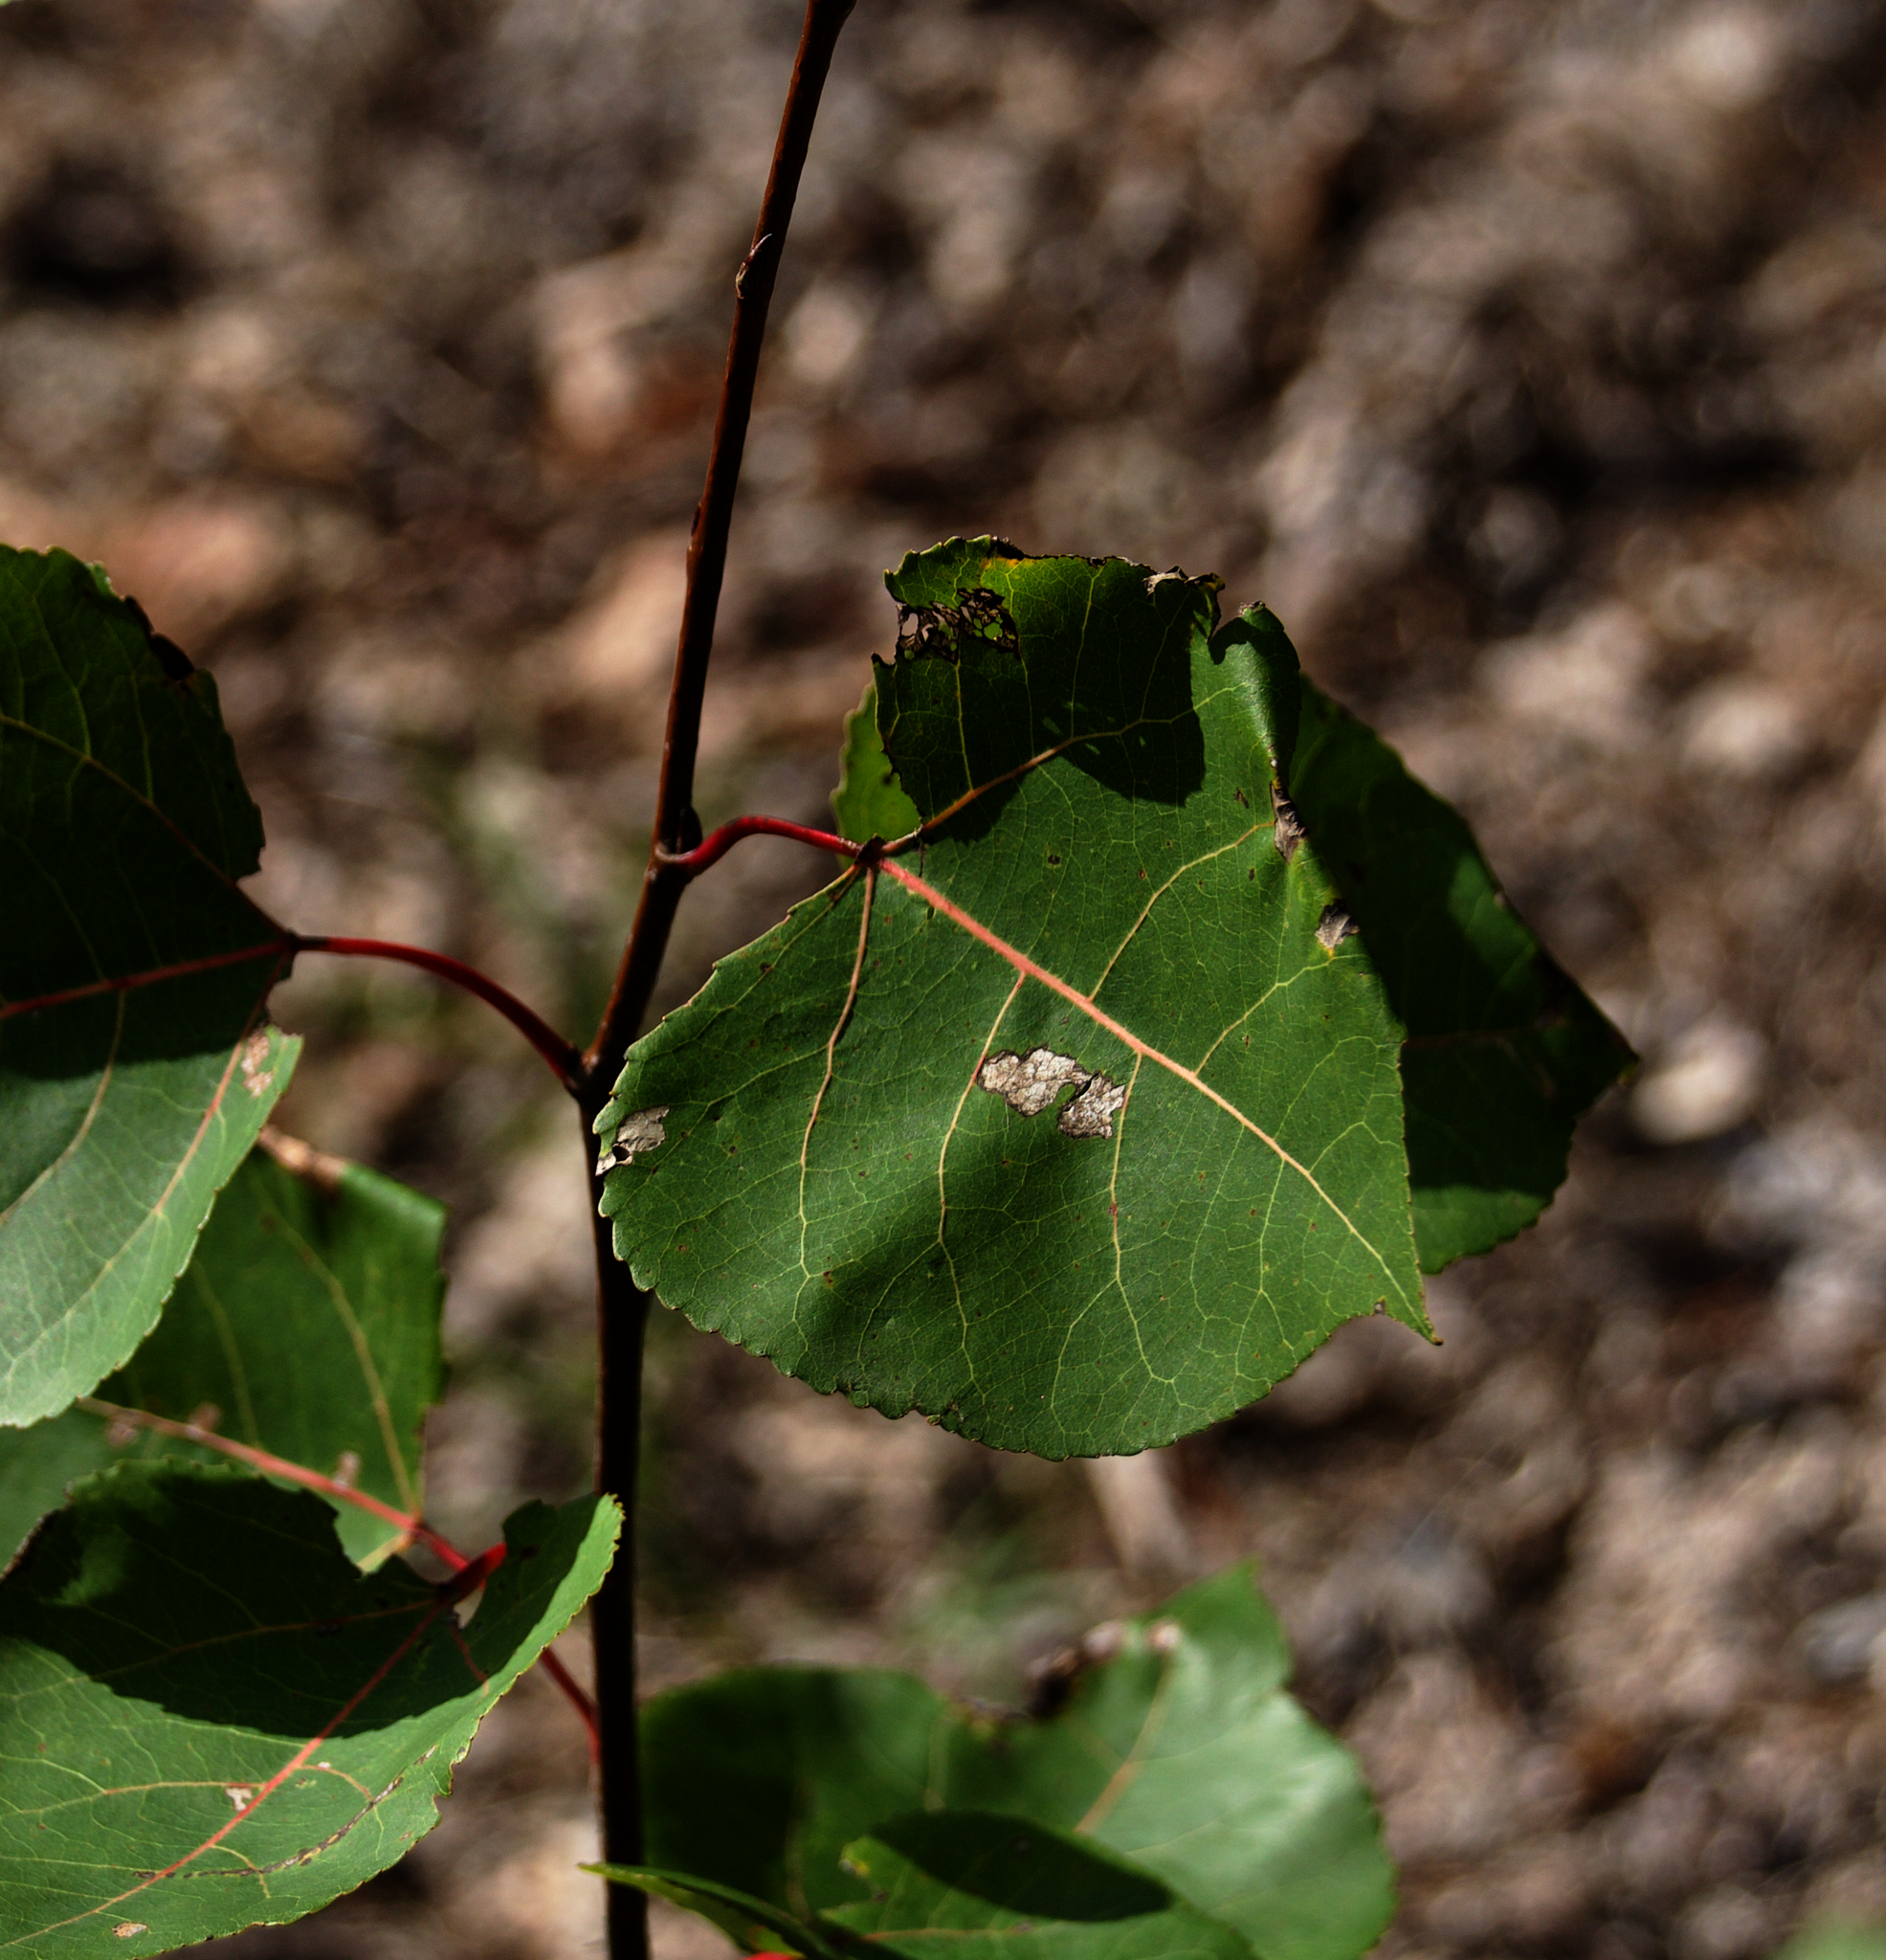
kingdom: Plantae
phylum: Tracheophyta
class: Magnoliopsida
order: Malpighiales
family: Salicaceae
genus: Populus
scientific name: Populus tremuloides
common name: Quaking aspen
